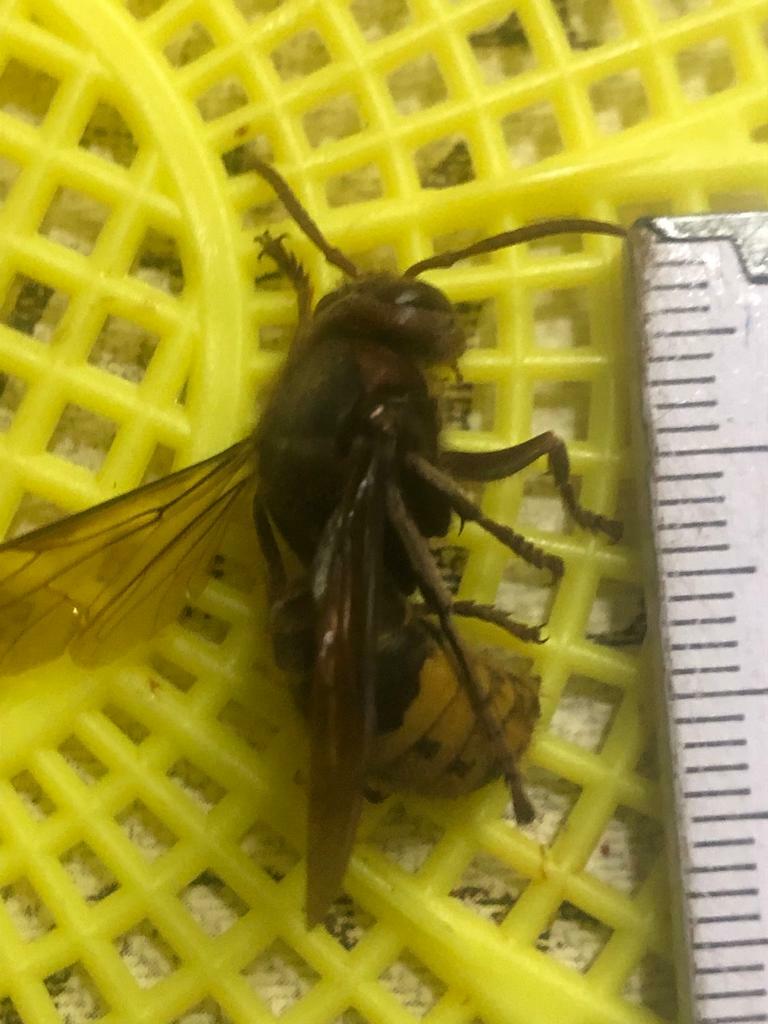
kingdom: Animalia
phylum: Arthropoda
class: Insecta
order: Hymenoptera
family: Vespidae
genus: Vespa
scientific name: Vespa crabro
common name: Hornet
